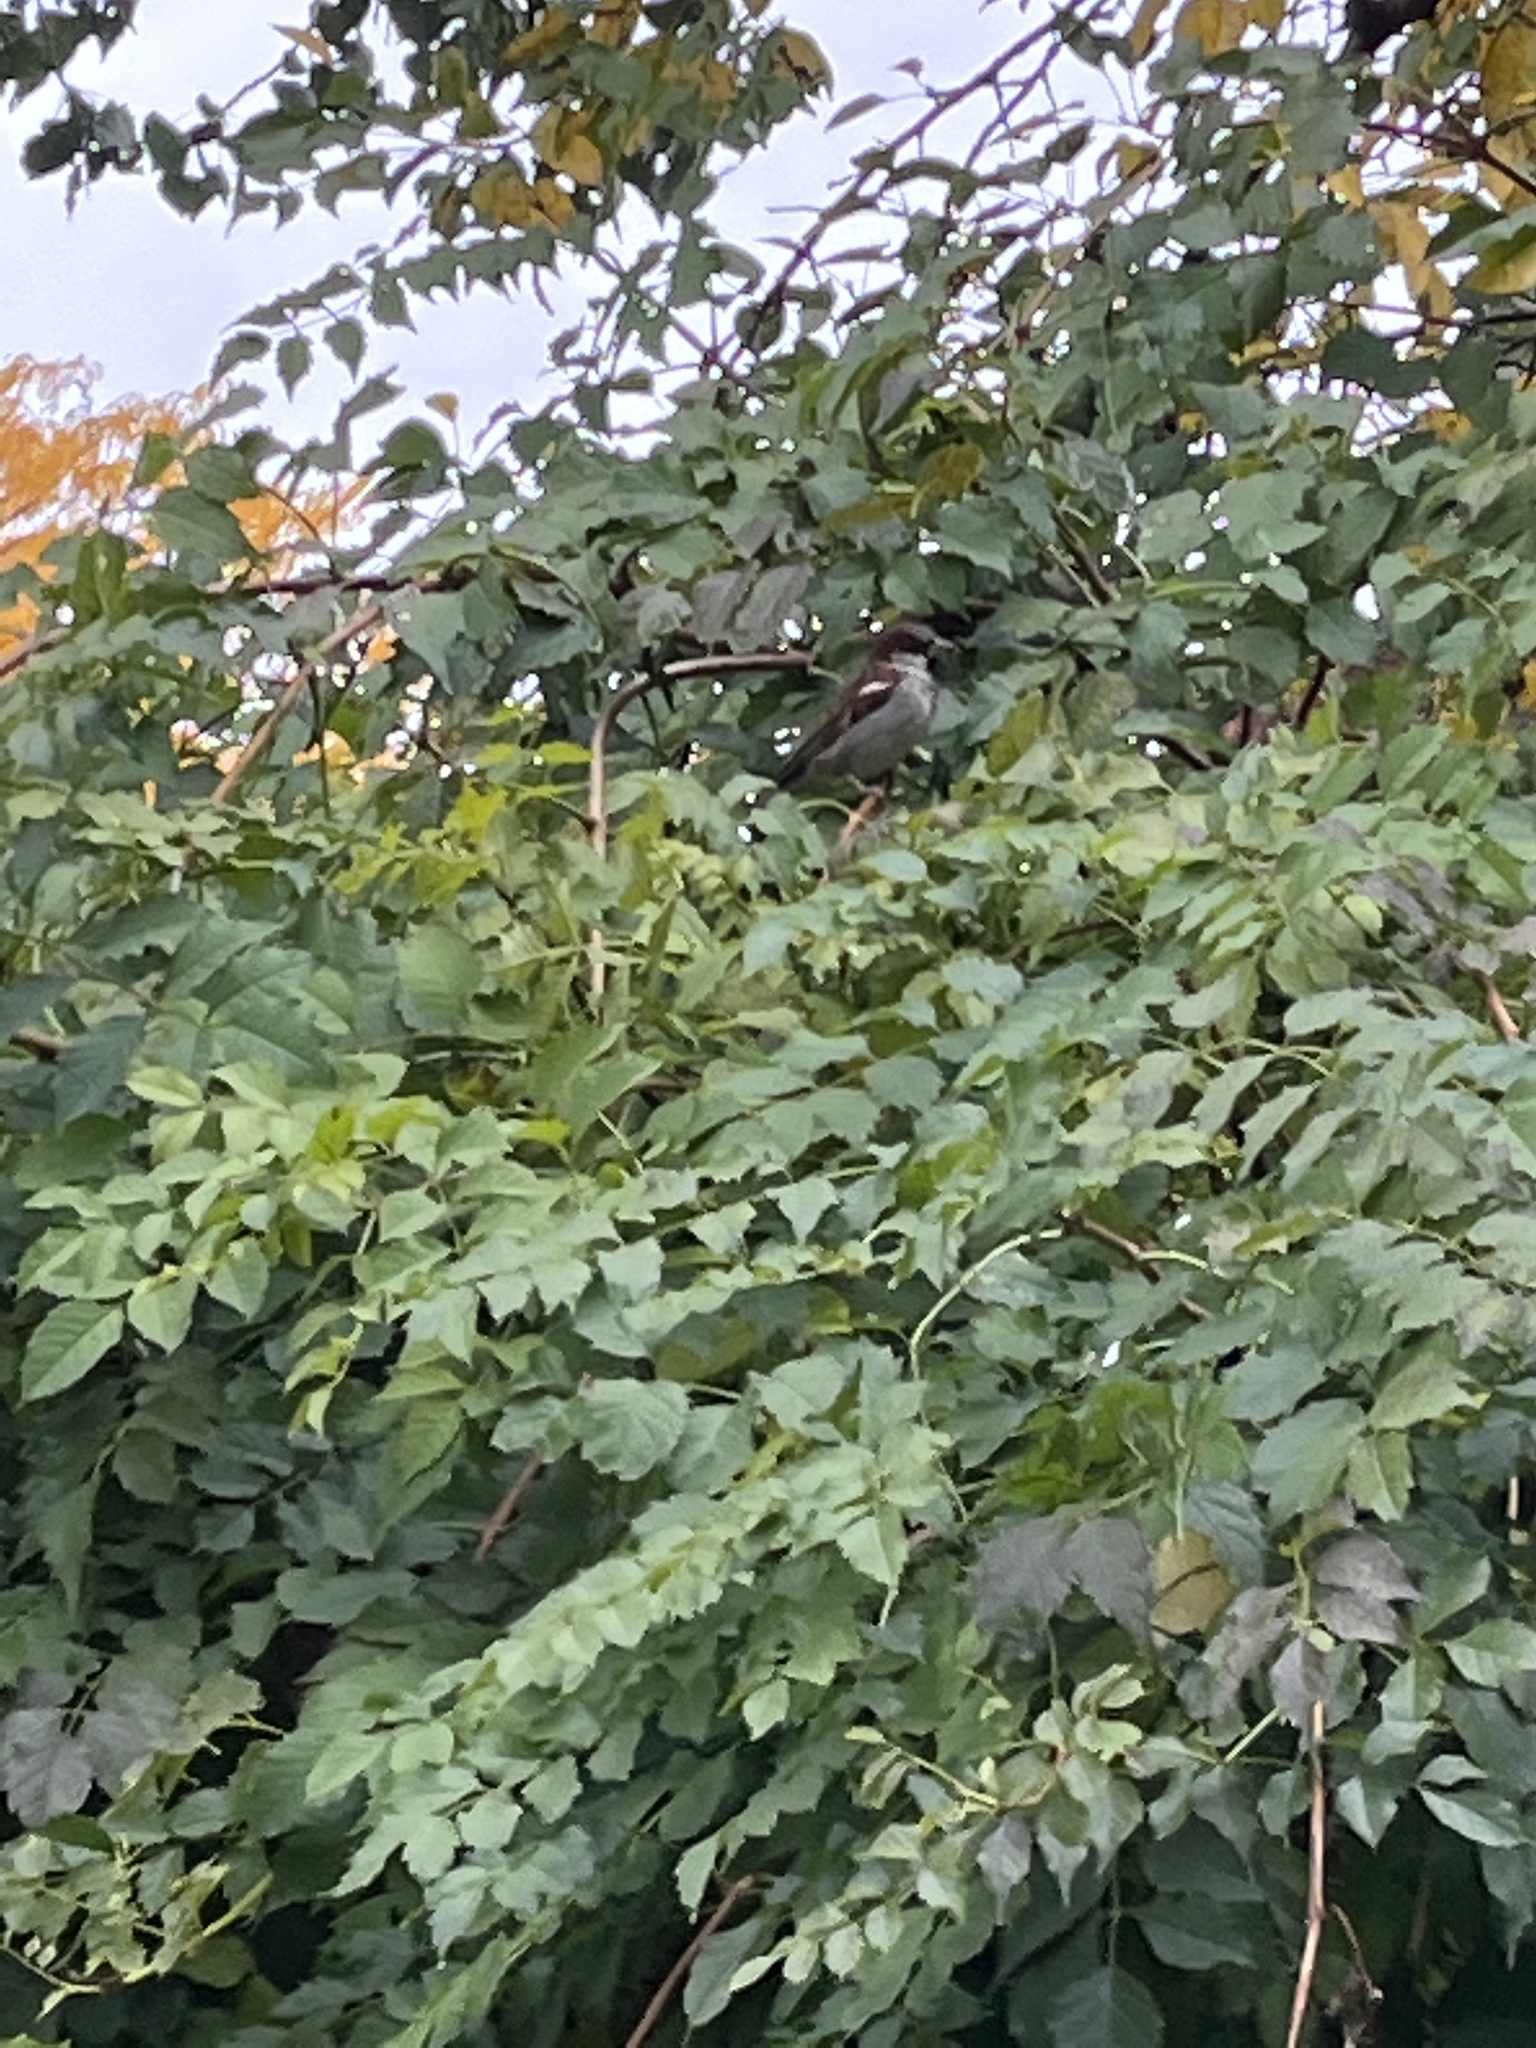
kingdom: Animalia
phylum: Chordata
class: Aves
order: Passeriformes
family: Passeridae
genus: Passer
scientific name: Passer domesticus
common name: House sparrow
